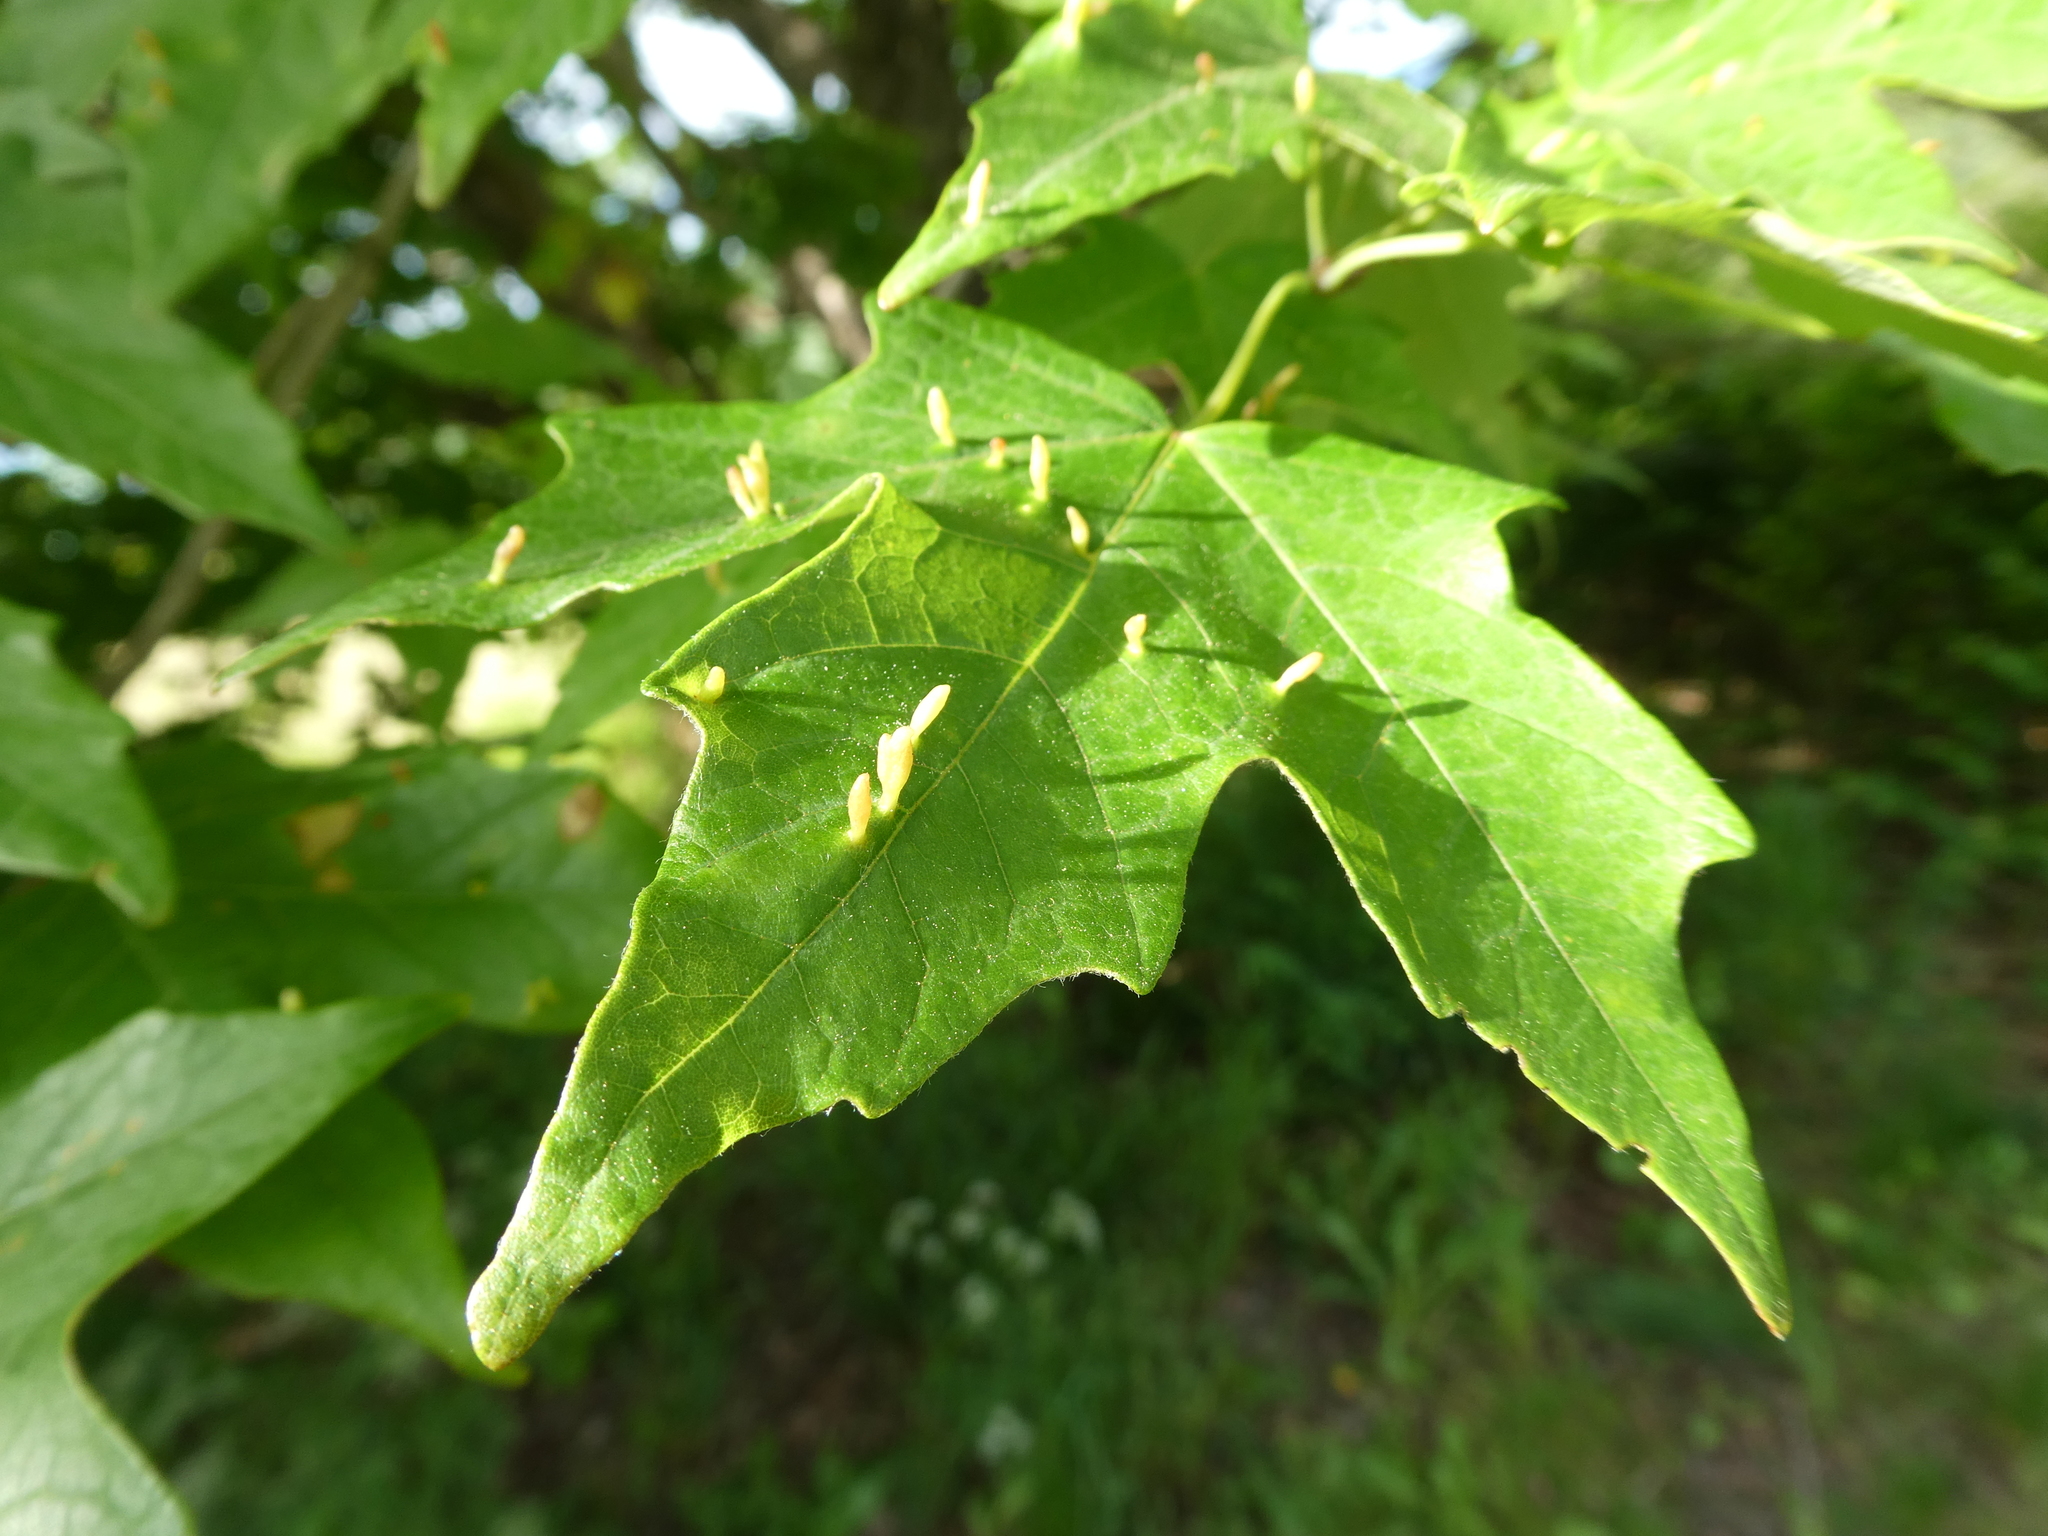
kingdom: Animalia
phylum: Arthropoda
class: Arachnida
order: Trombidiformes
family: Eriophyidae
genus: Vasates
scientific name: Vasates aceriscrumena
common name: Maple spindle gall mite
